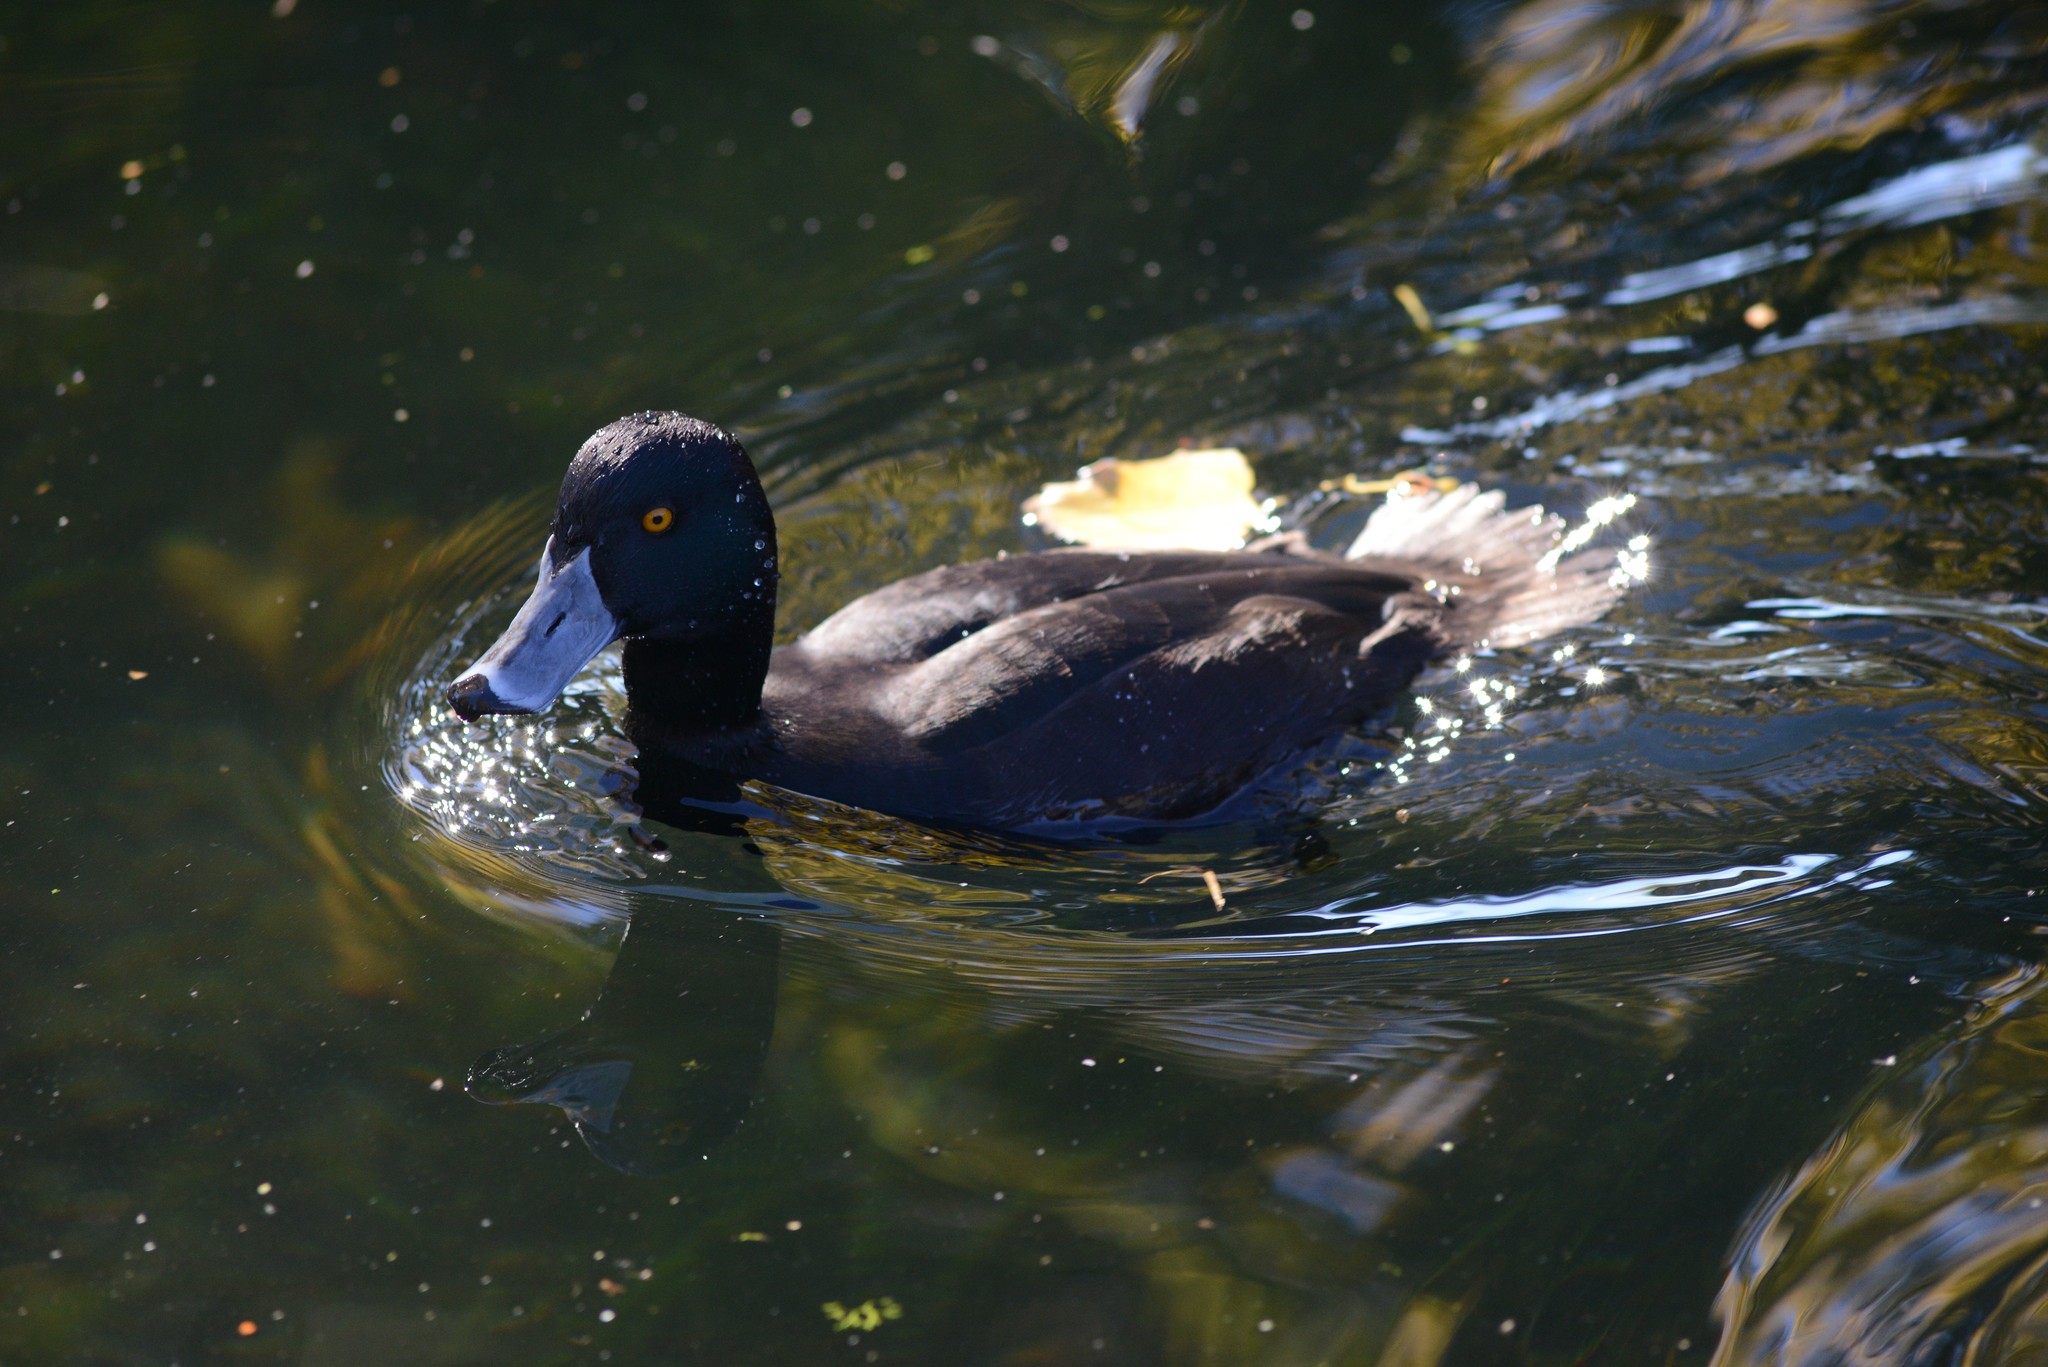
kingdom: Animalia
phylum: Chordata
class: Aves
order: Anseriformes
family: Anatidae
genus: Aythya
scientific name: Aythya novaeseelandiae
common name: New zealand scaup
